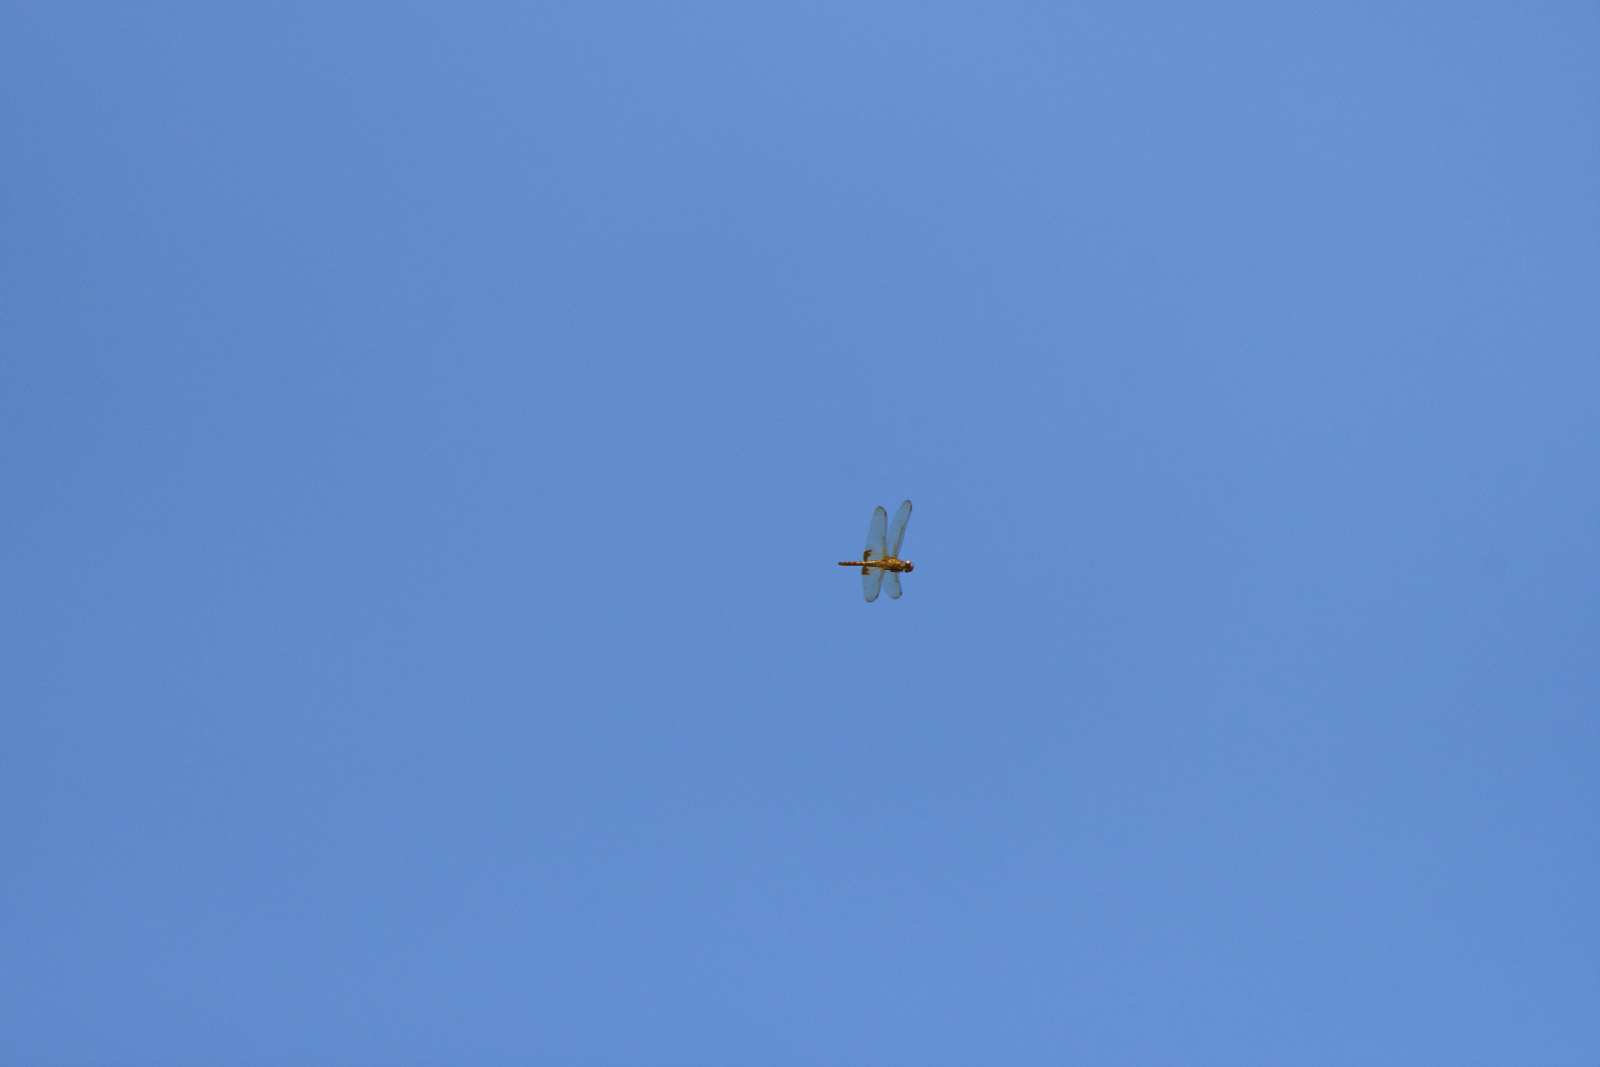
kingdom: Animalia
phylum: Arthropoda
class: Insecta
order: Odonata
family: Libellulidae
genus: Hydrobasileus
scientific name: Hydrobasileus croceus
